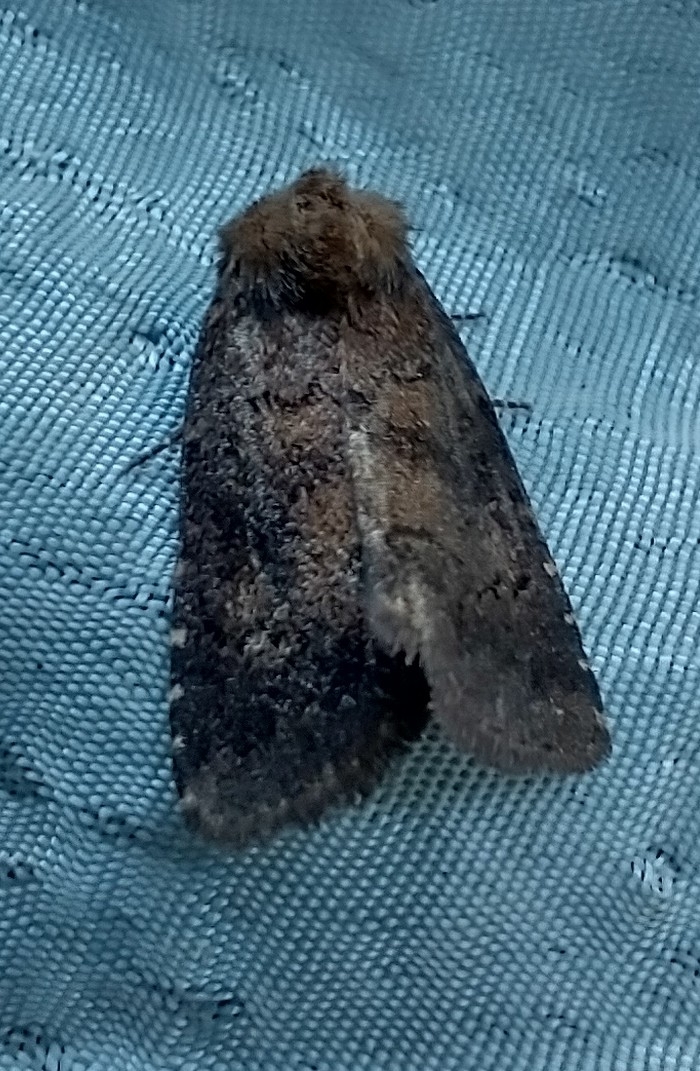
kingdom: Animalia
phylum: Arthropoda
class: Insecta
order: Lepidoptera
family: Noctuidae
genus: Charanyca
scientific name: Charanyca ferruginea
